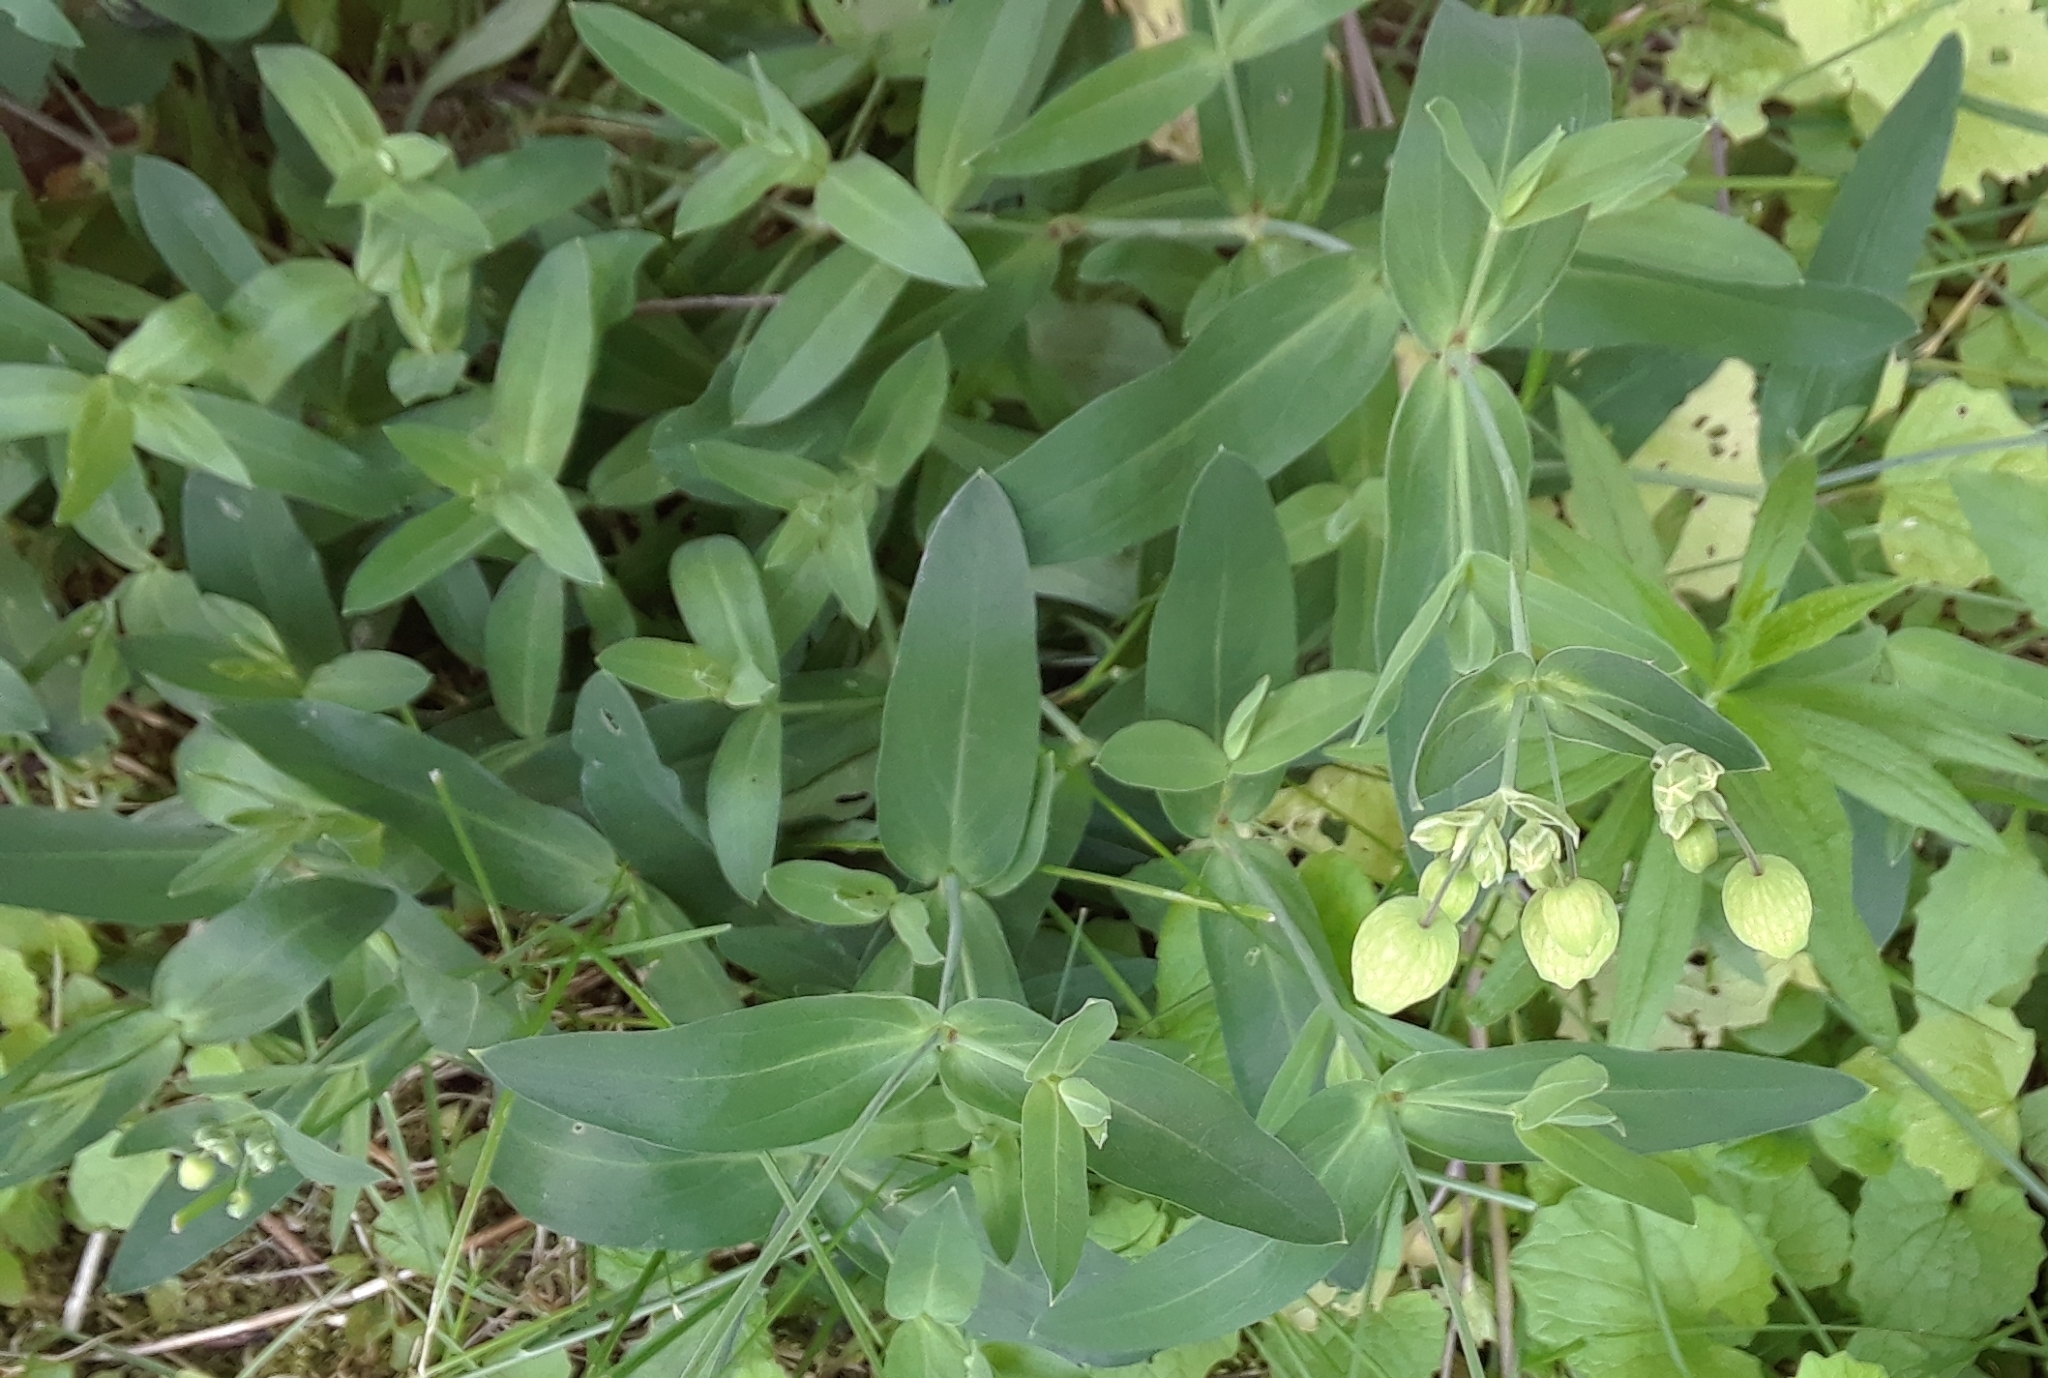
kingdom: Plantae
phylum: Tracheophyta
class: Magnoliopsida
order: Caryophyllales
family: Caryophyllaceae
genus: Silene
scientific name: Silene vulgaris
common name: Bladder campion
